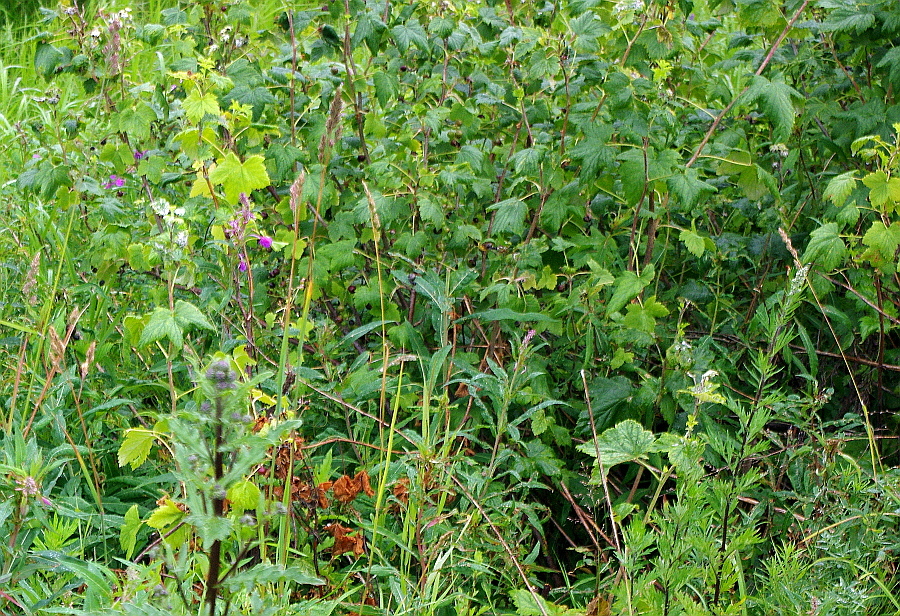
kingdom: Plantae
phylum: Tracheophyta
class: Magnoliopsida
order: Saxifragales
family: Grossulariaceae
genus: Ribes
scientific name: Ribes nigrum
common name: Black currant
